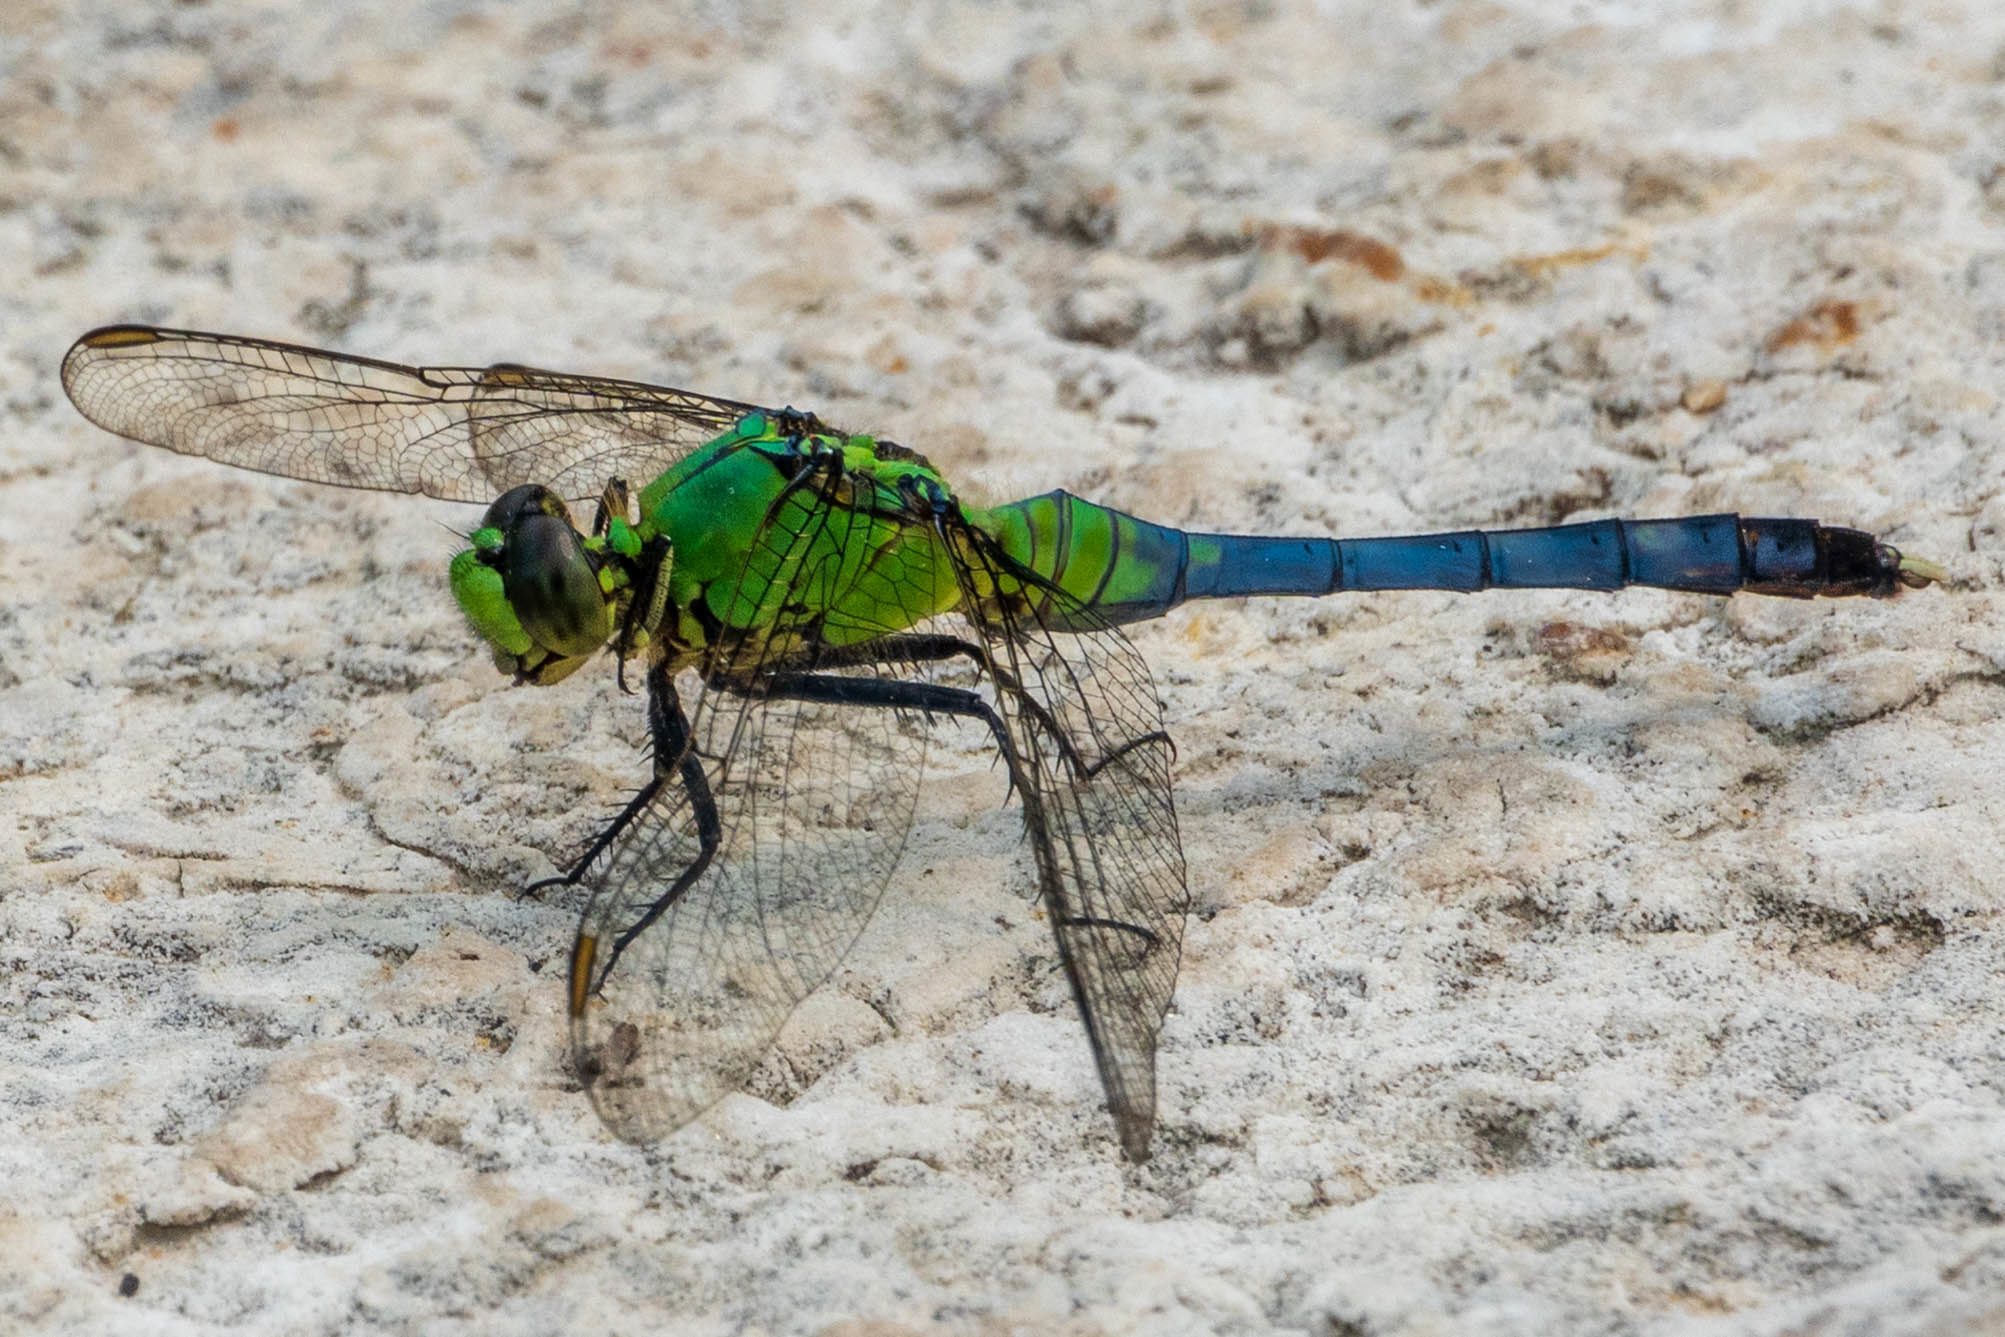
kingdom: Animalia
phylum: Arthropoda
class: Insecta
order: Odonata
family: Libellulidae
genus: Erythemis
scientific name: Erythemis simplicicollis
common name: Eastern pondhawk
